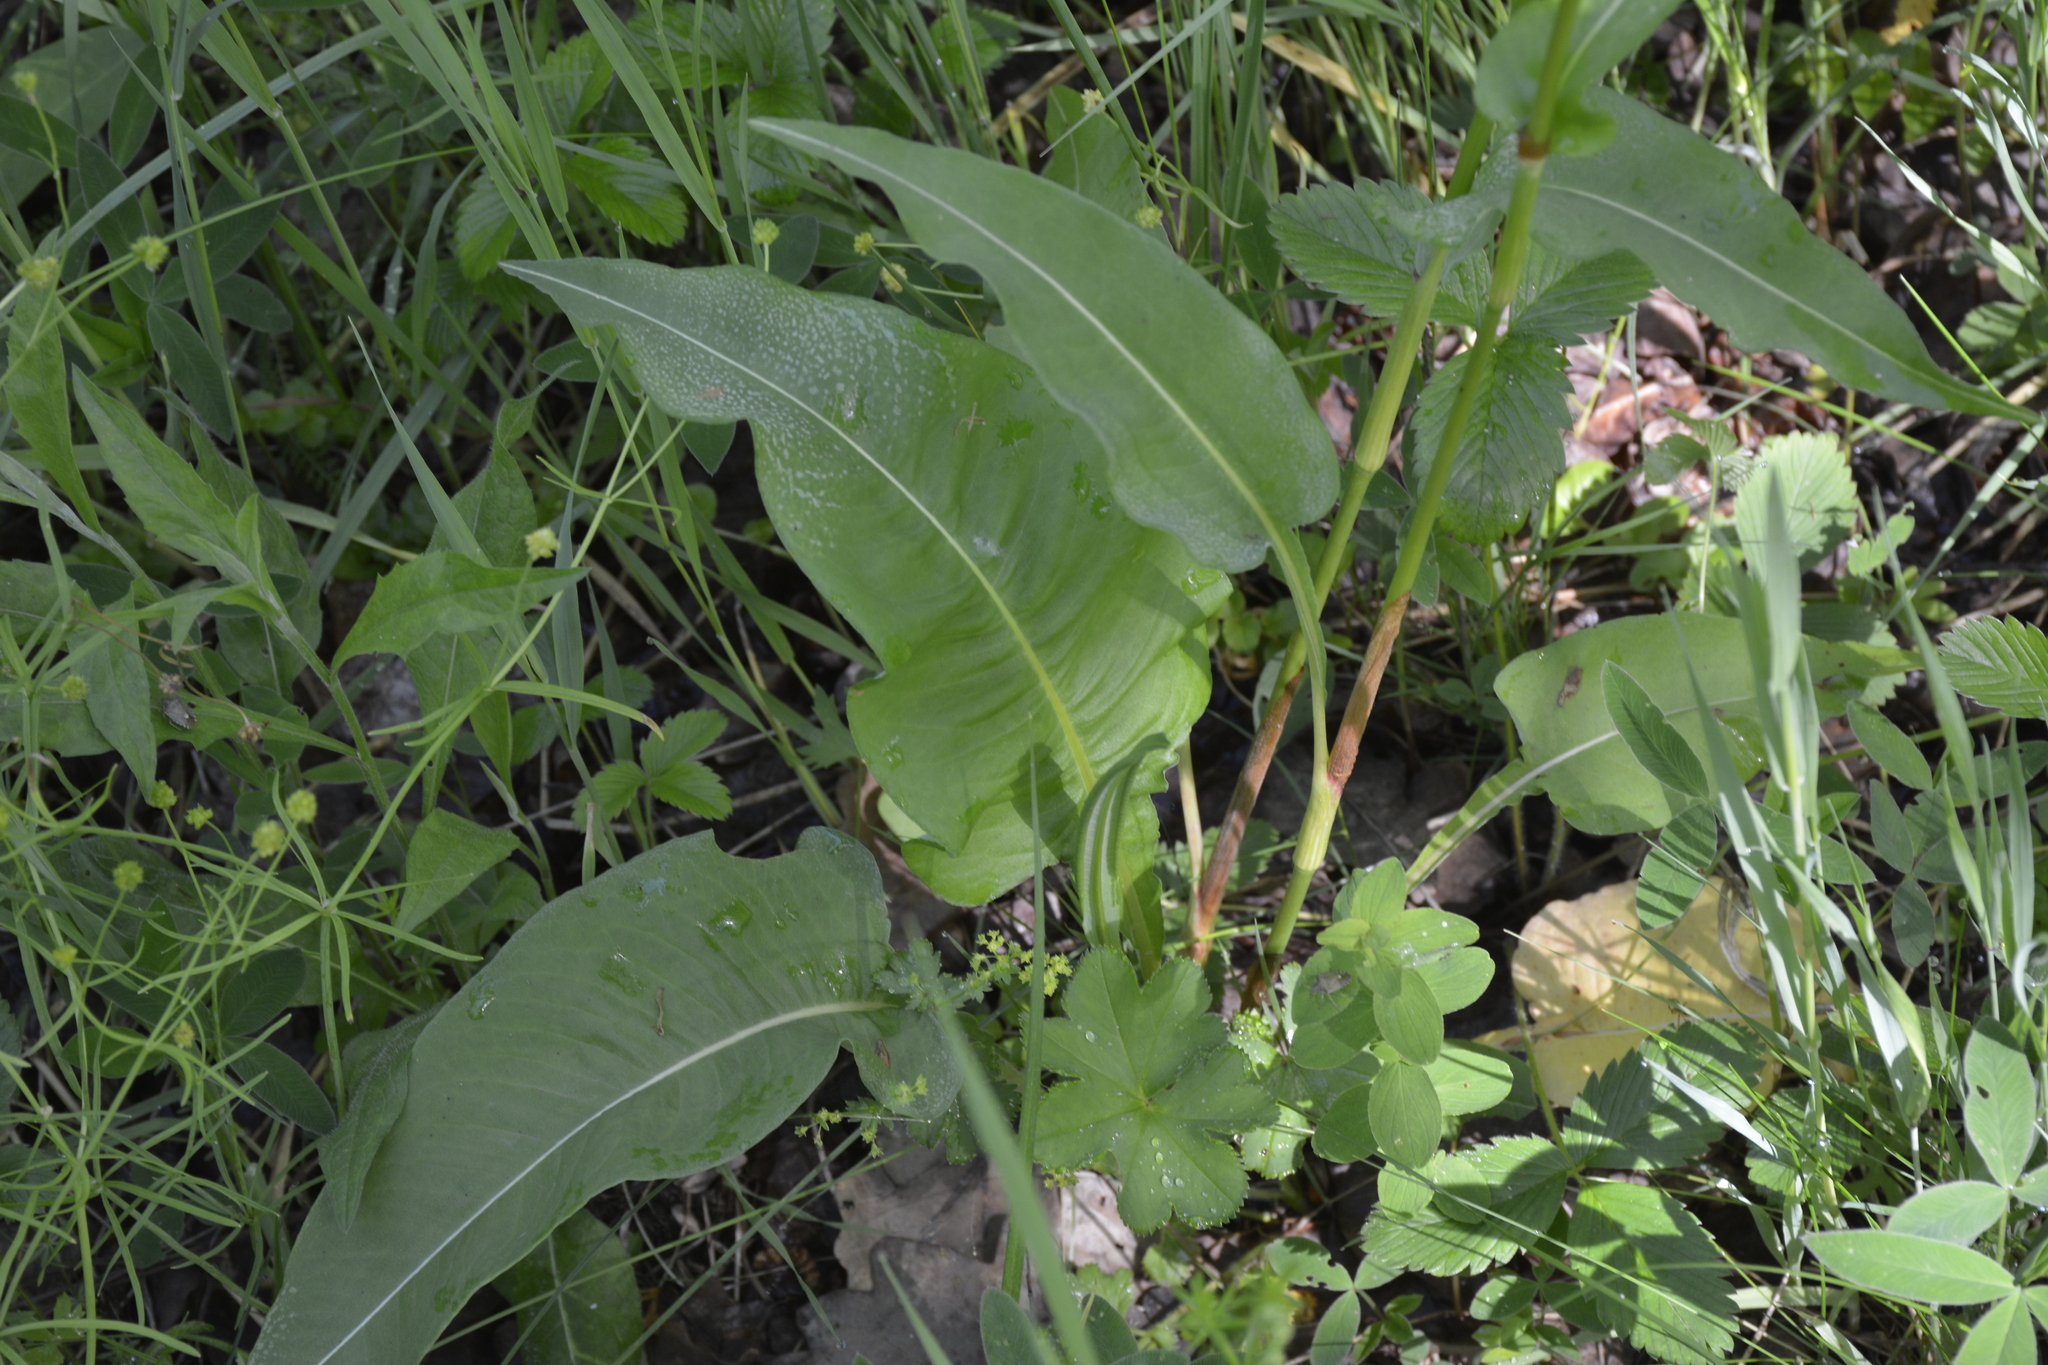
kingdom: Plantae
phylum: Tracheophyta
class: Magnoliopsida
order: Caryophyllales
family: Polygonaceae
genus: Bistorta
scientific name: Bistorta officinalis
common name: Common bistort
